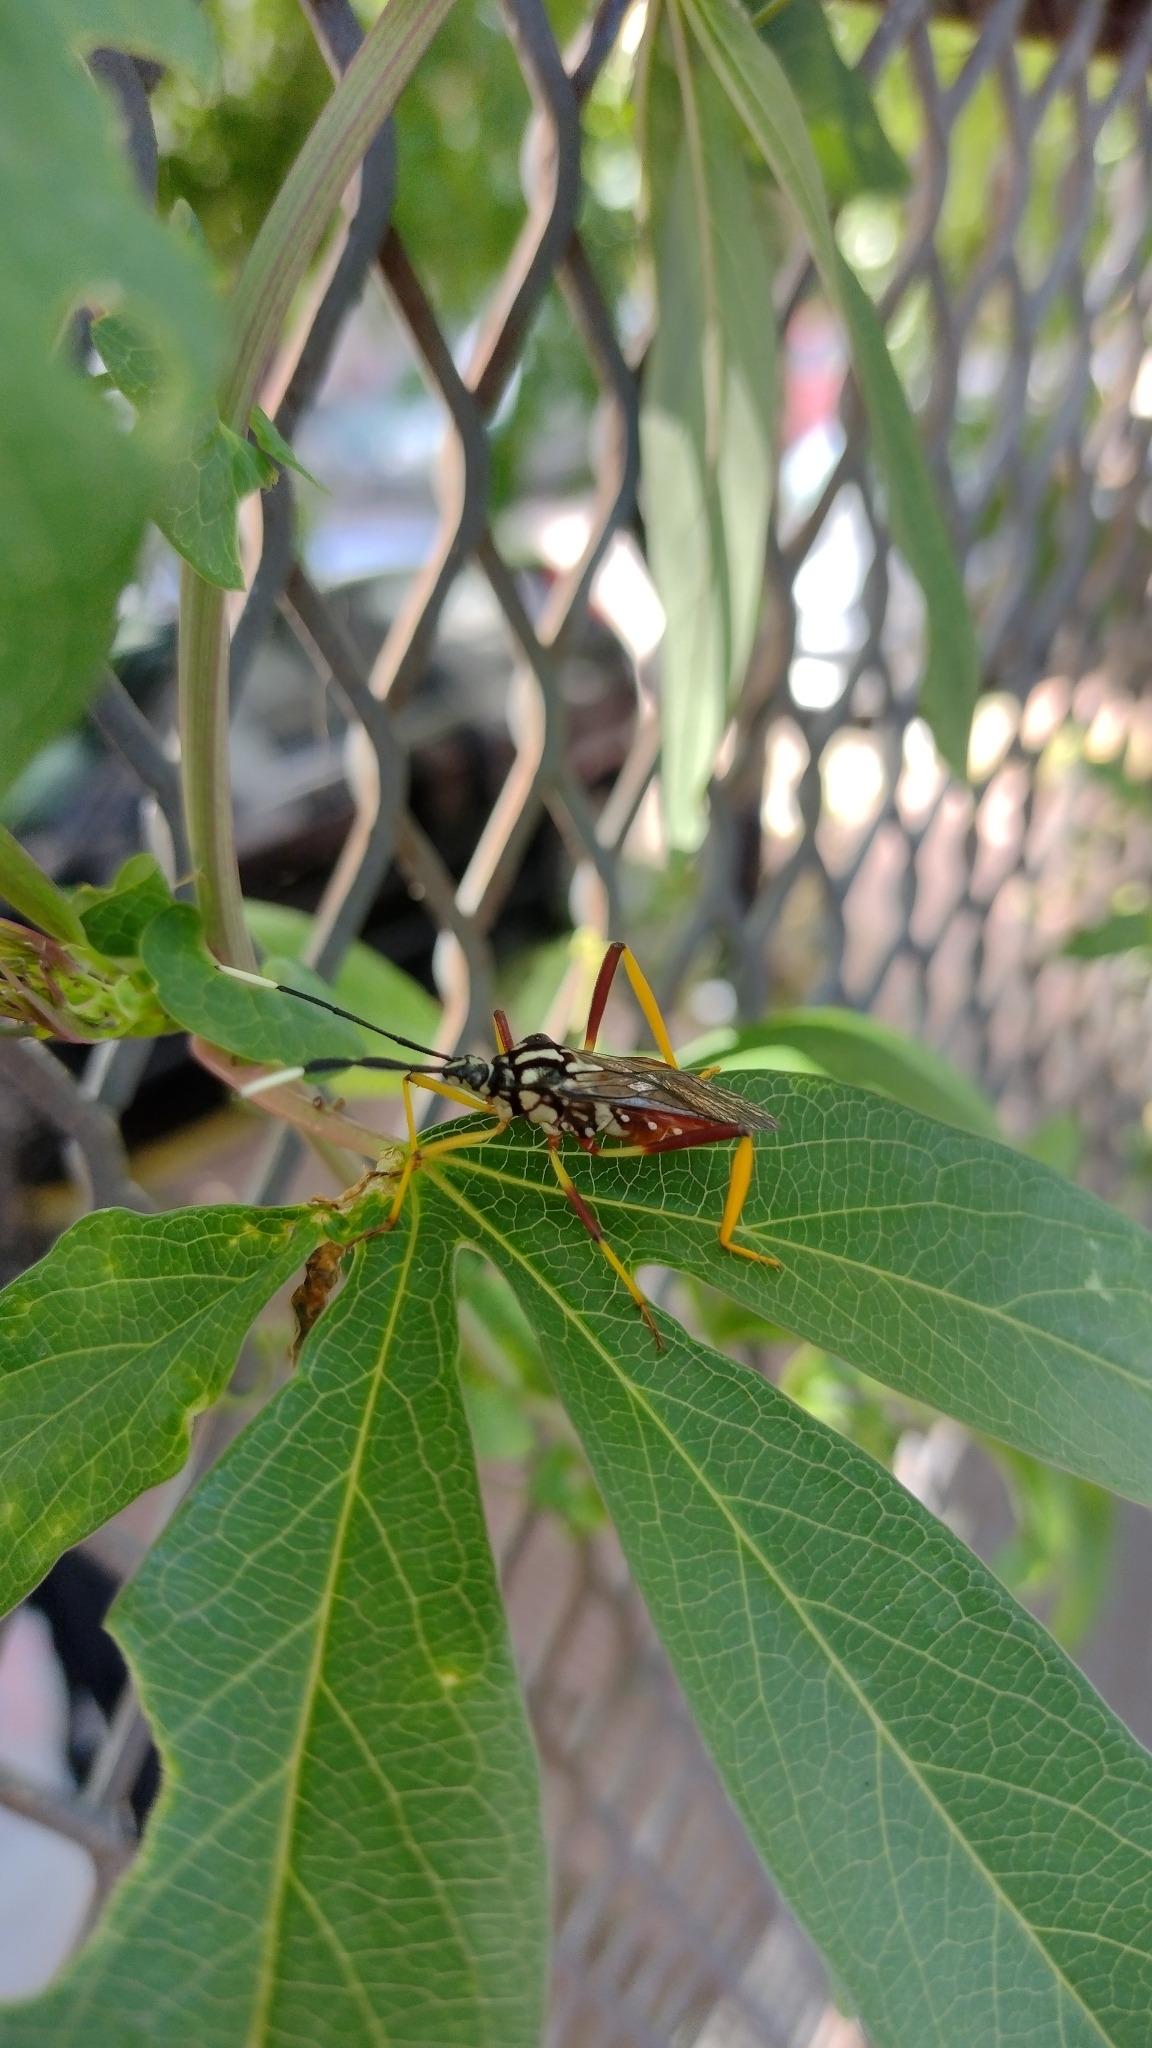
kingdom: Animalia
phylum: Arthropoda
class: Insecta
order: Hemiptera
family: Coreidae
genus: Holhymenia
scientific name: Holhymenia histrio
